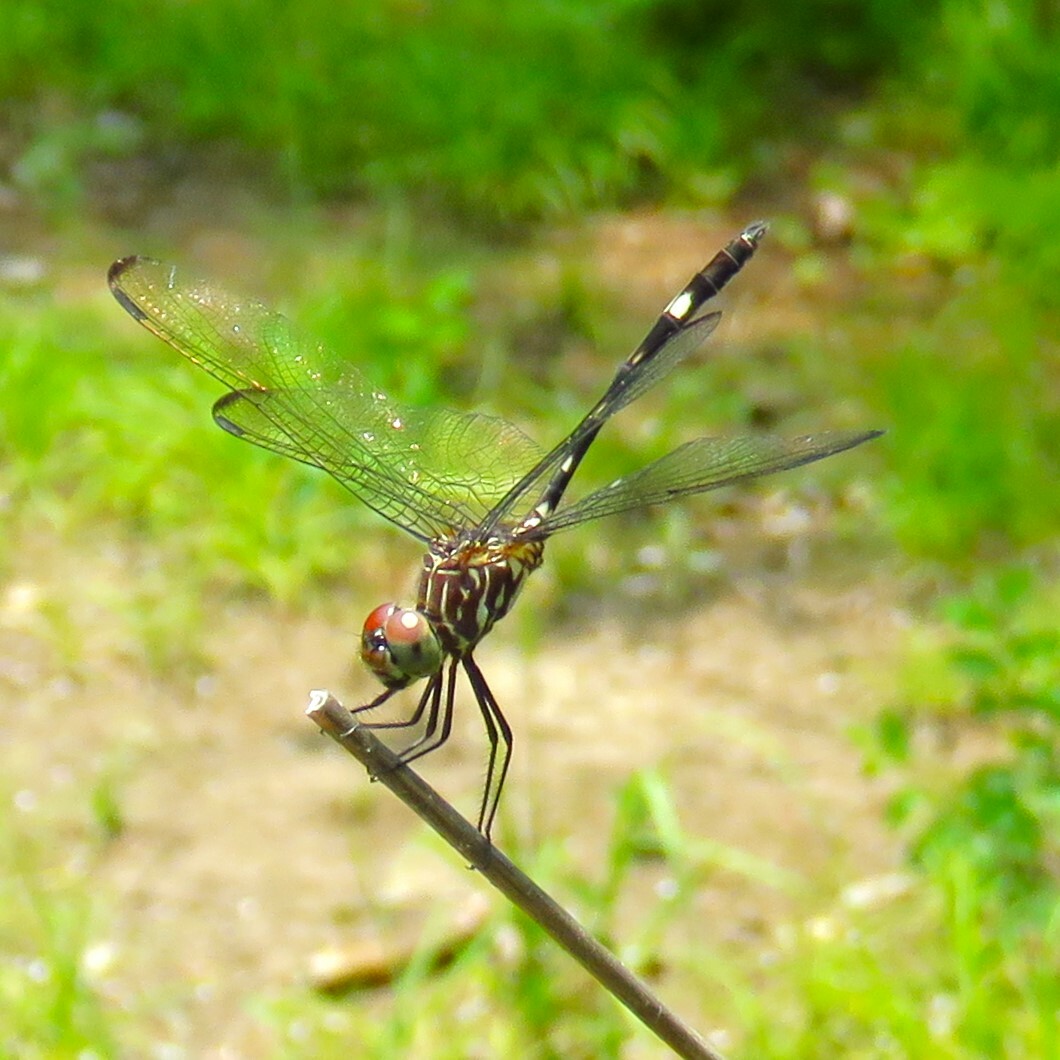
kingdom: Animalia
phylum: Arthropoda
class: Insecta
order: Odonata
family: Libellulidae
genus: Dythemis
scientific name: Dythemis velox
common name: Swift setwing
